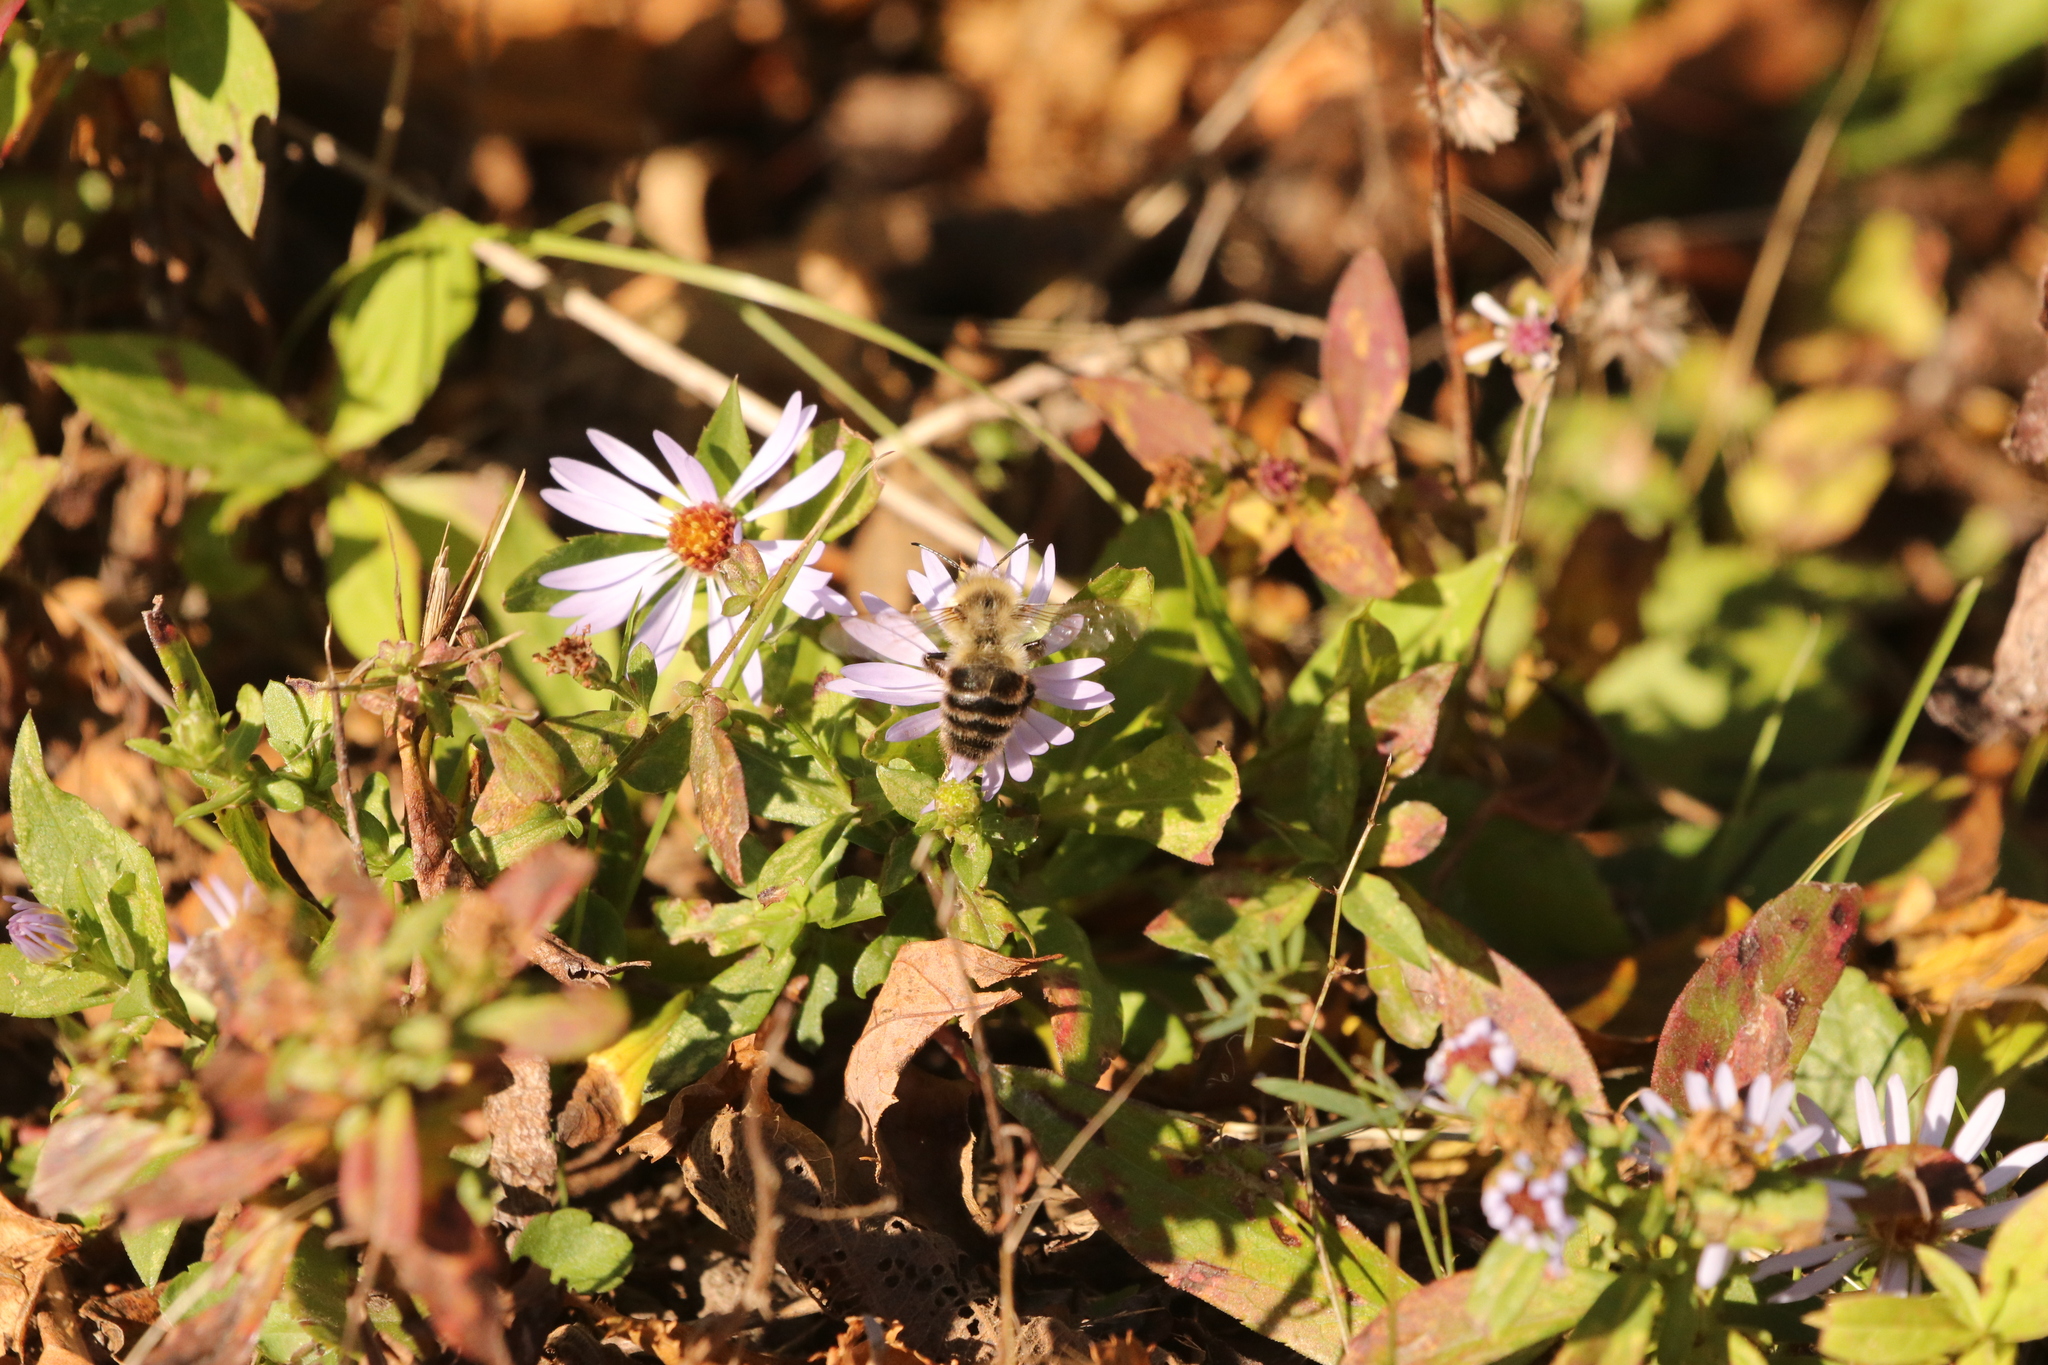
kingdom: Animalia
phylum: Arthropoda
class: Insecta
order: Hymenoptera
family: Apidae
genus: Bombus
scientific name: Bombus impatiens
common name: Common eastern bumble bee
